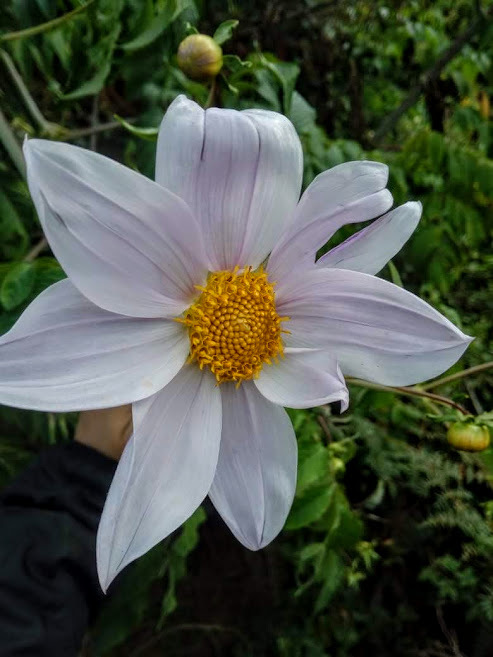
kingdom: Plantae
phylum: Tracheophyta
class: Magnoliopsida
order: Asterales
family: Asteraceae
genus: Dahlia
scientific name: Dahlia imperialis
